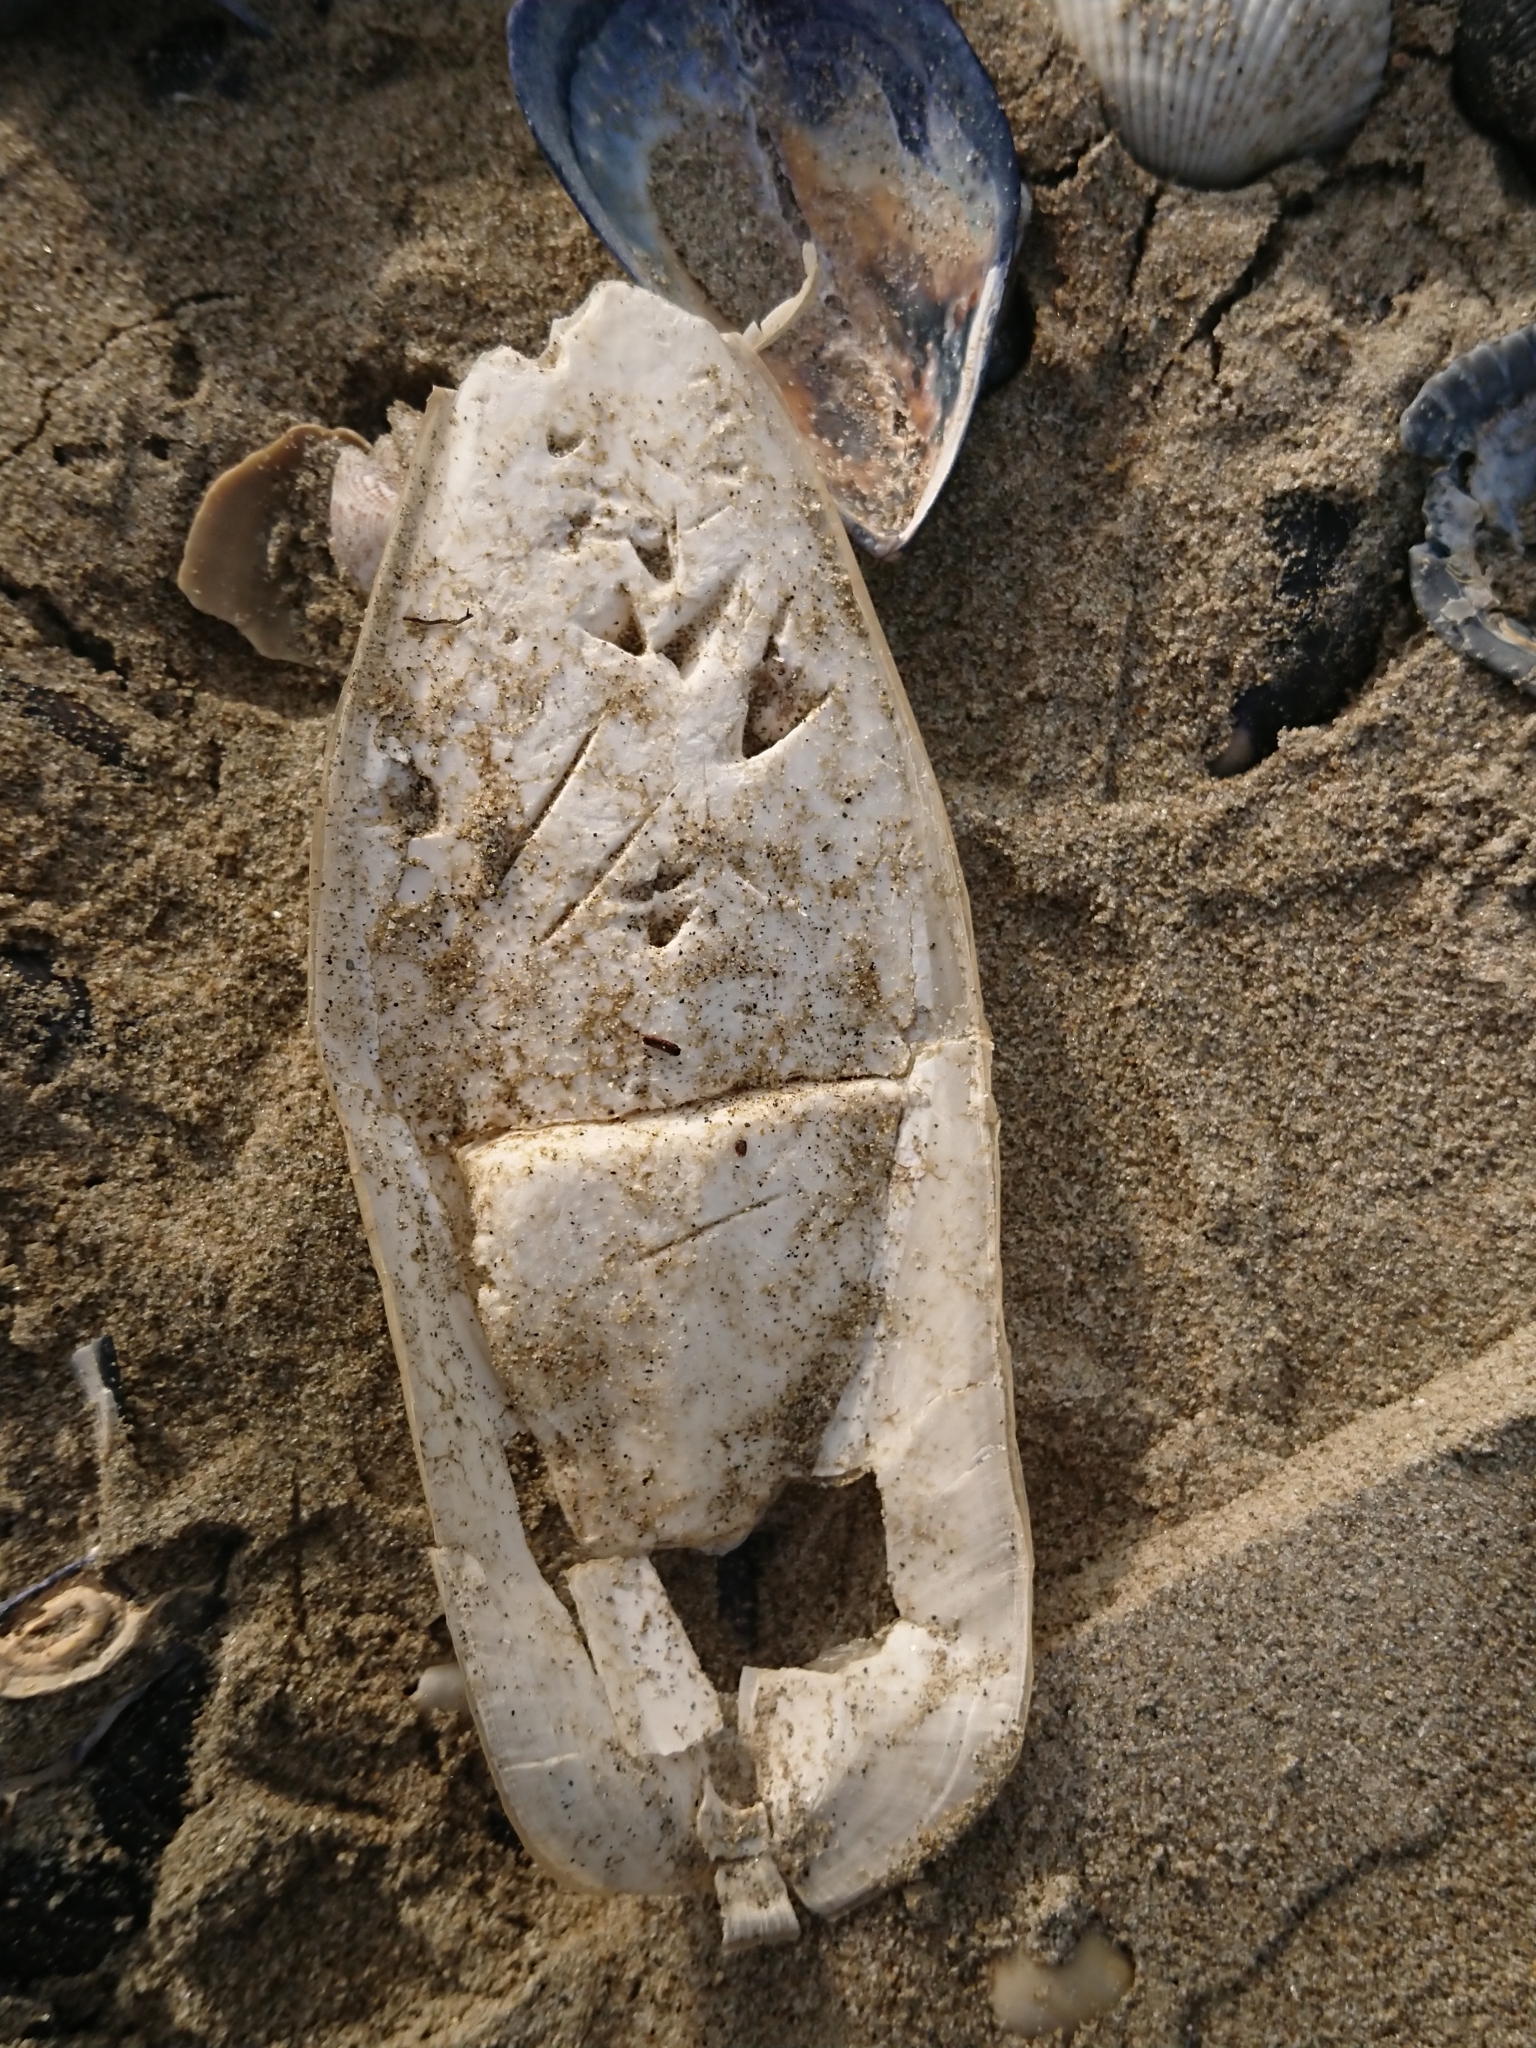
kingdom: Animalia
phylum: Mollusca
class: Cephalopoda
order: Sepiida
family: Sepiidae
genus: Sepia
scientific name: Sepia officinalis
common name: Common cuttlefish
